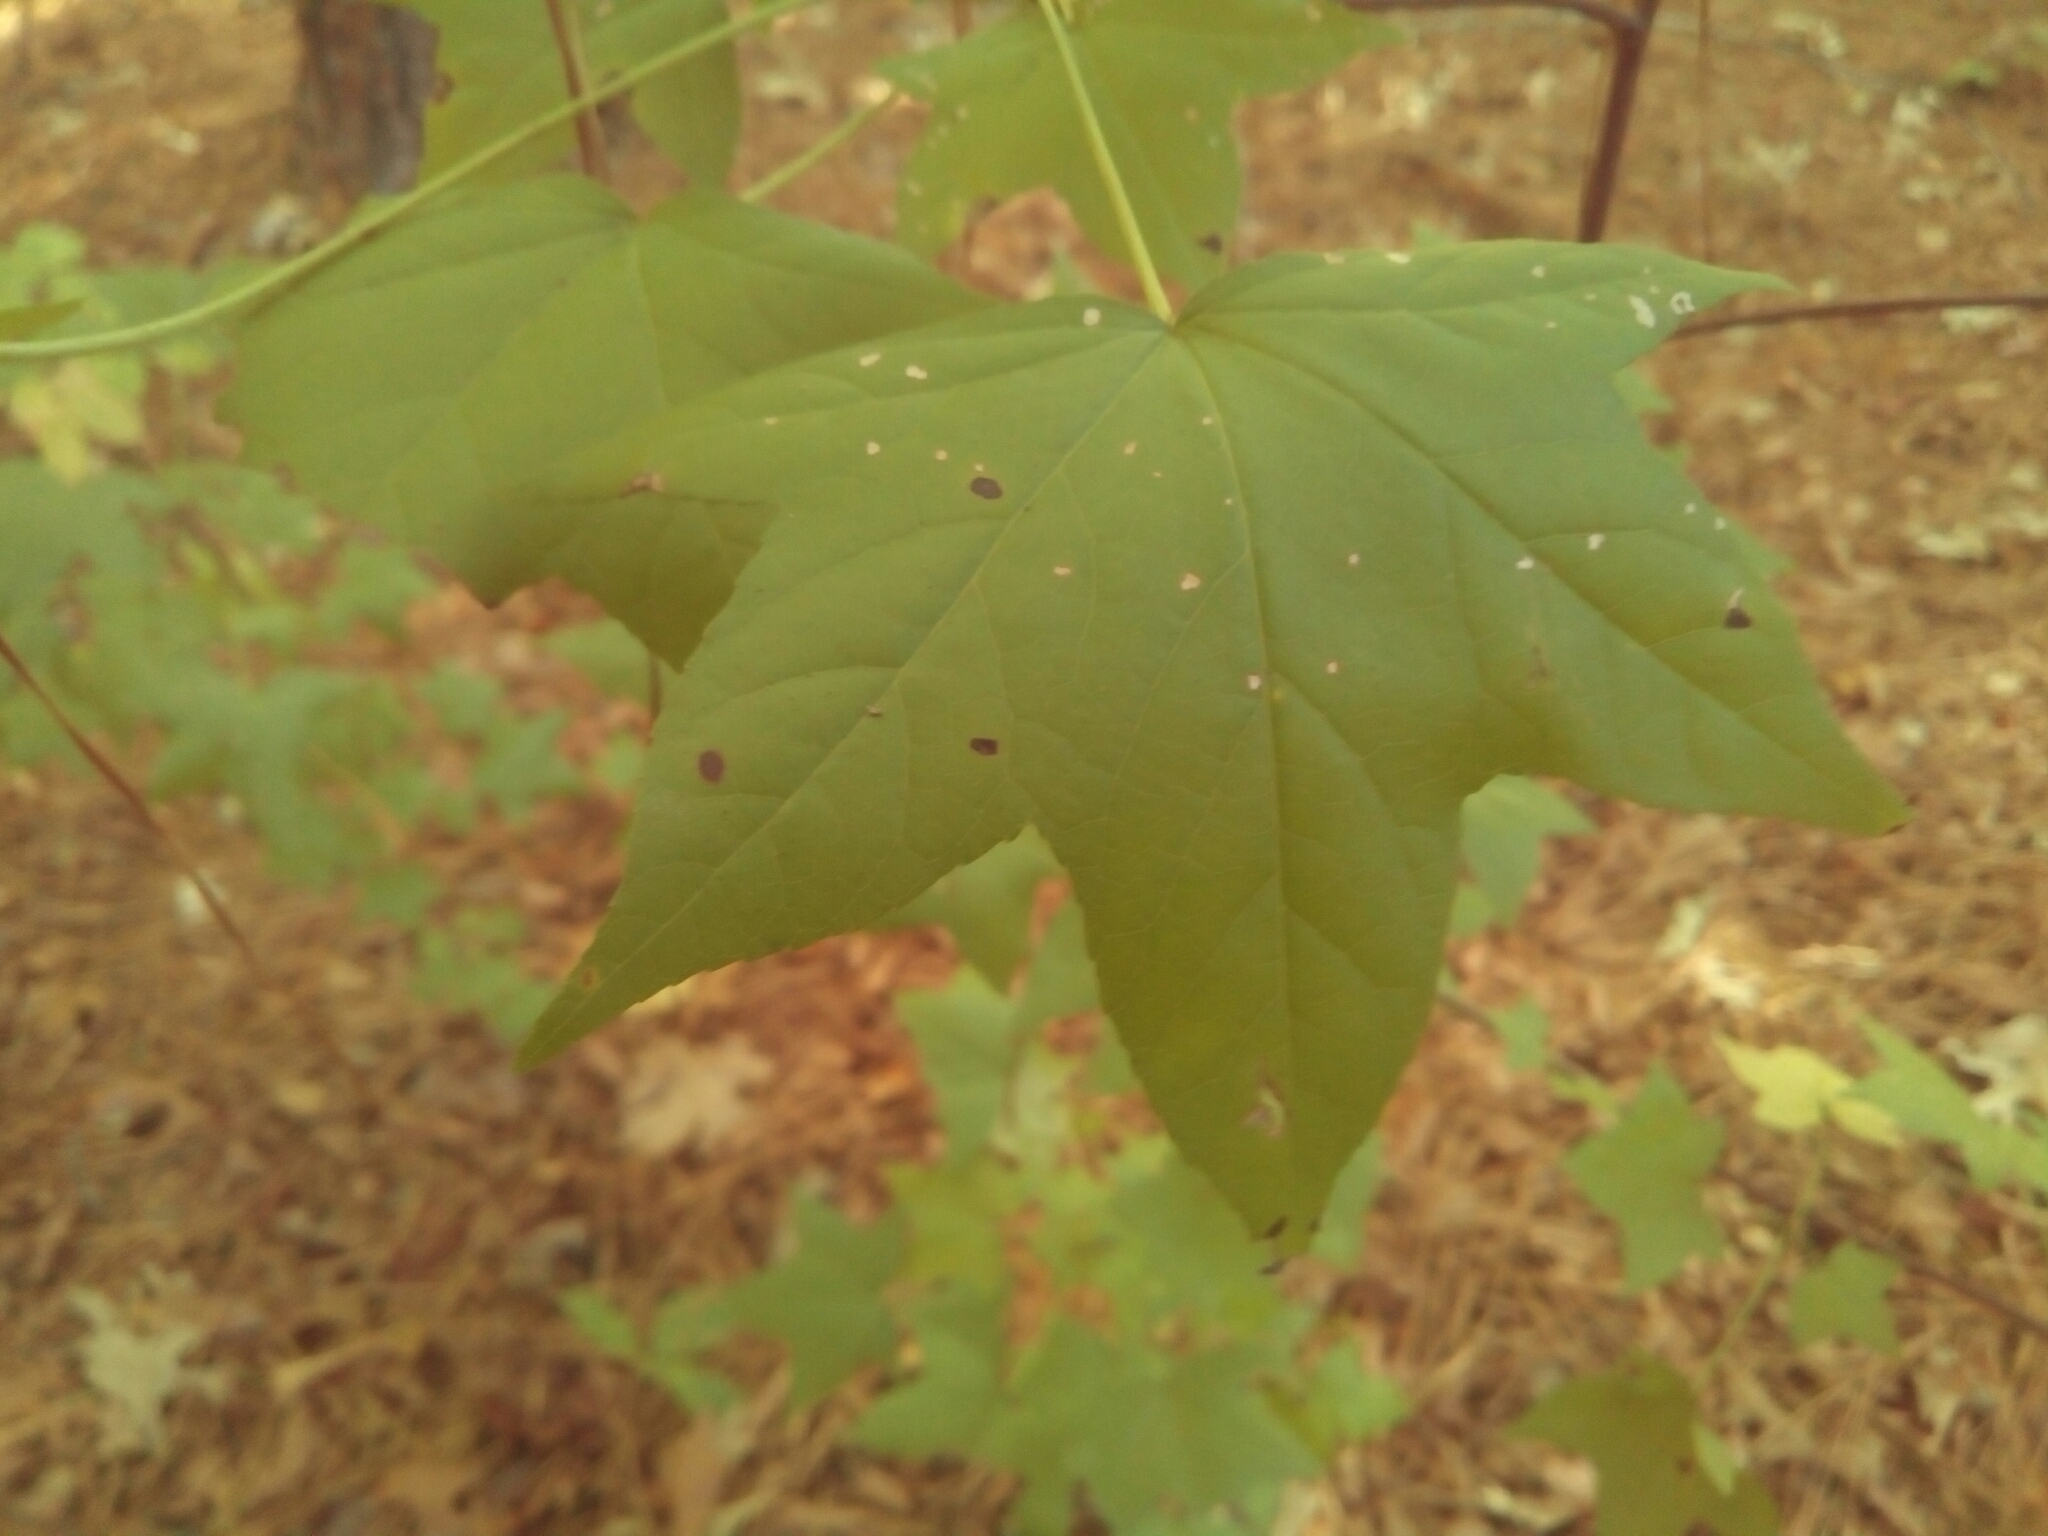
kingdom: Plantae
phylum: Tracheophyta
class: Magnoliopsida
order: Saxifragales
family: Altingiaceae
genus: Liquidambar
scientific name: Liquidambar styraciflua
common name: Sweet gum
